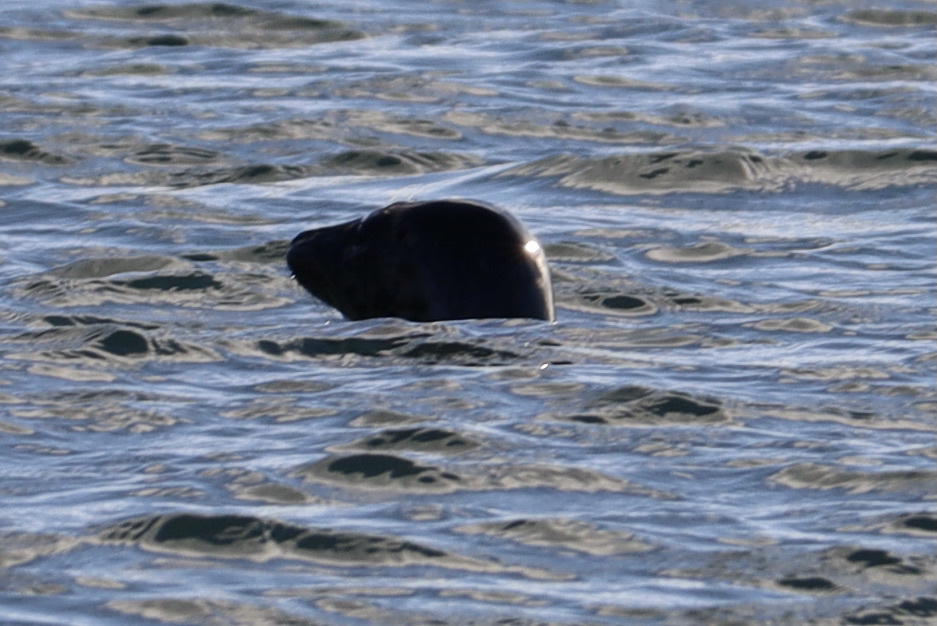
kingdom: Animalia
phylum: Chordata
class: Mammalia
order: Carnivora
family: Phocidae
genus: Phoca
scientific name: Phoca vitulina
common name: Harbor seal
